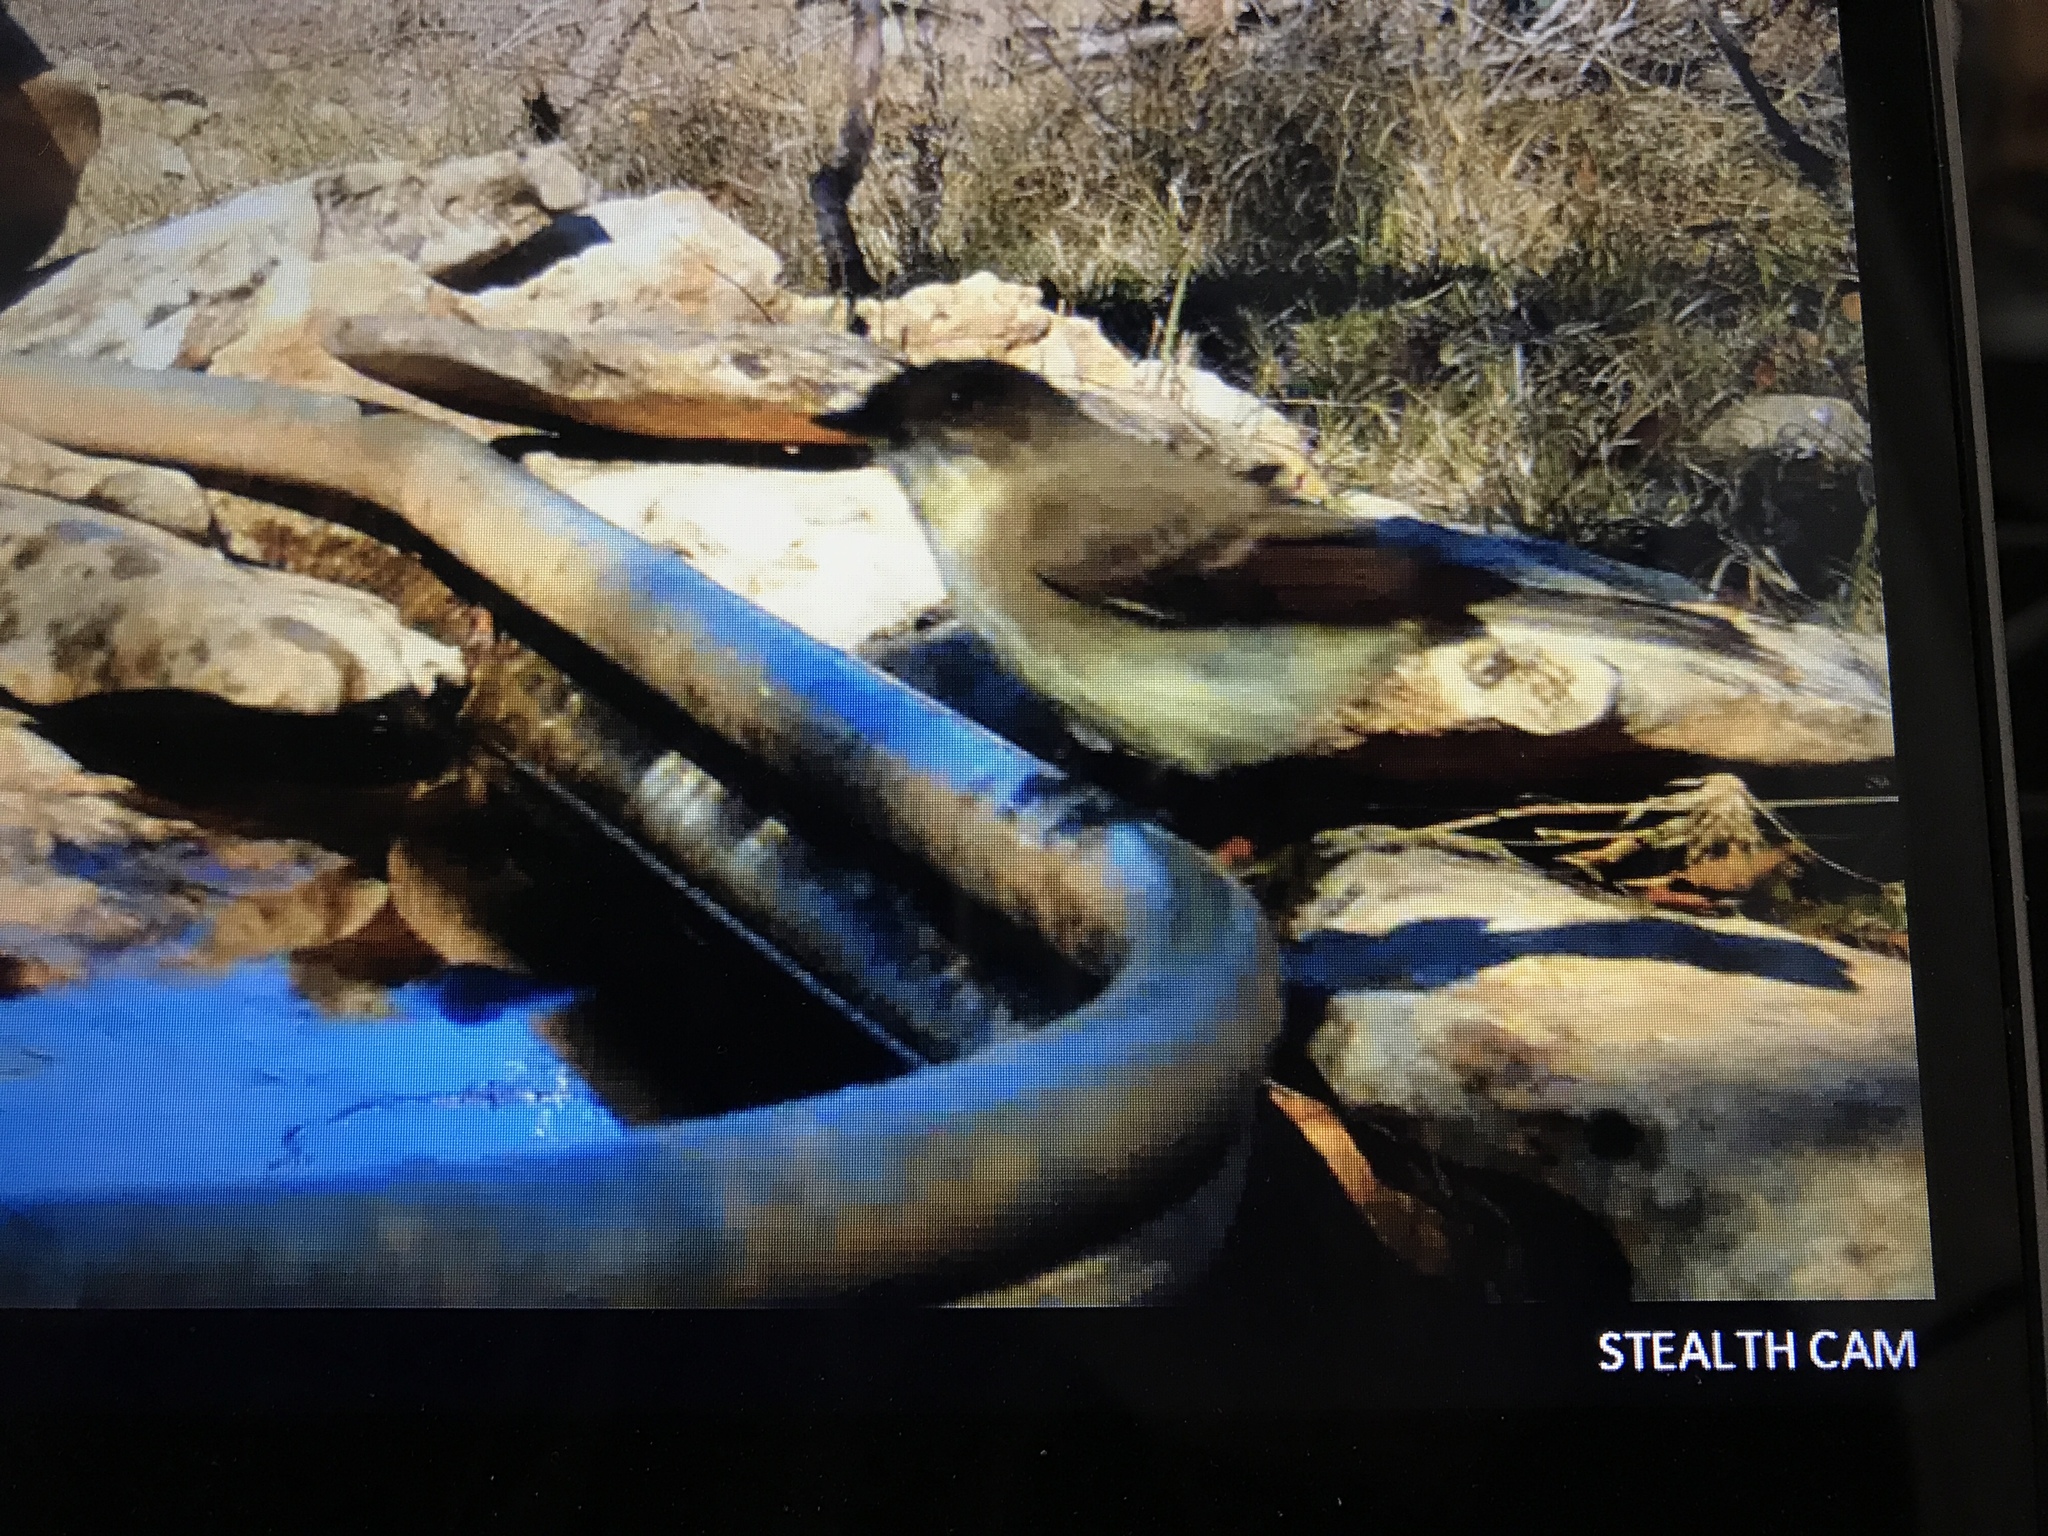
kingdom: Animalia
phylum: Chordata
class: Aves
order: Passeriformes
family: Tyrannidae
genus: Sayornis
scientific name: Sayornis phoebe
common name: Eastern phoebe
